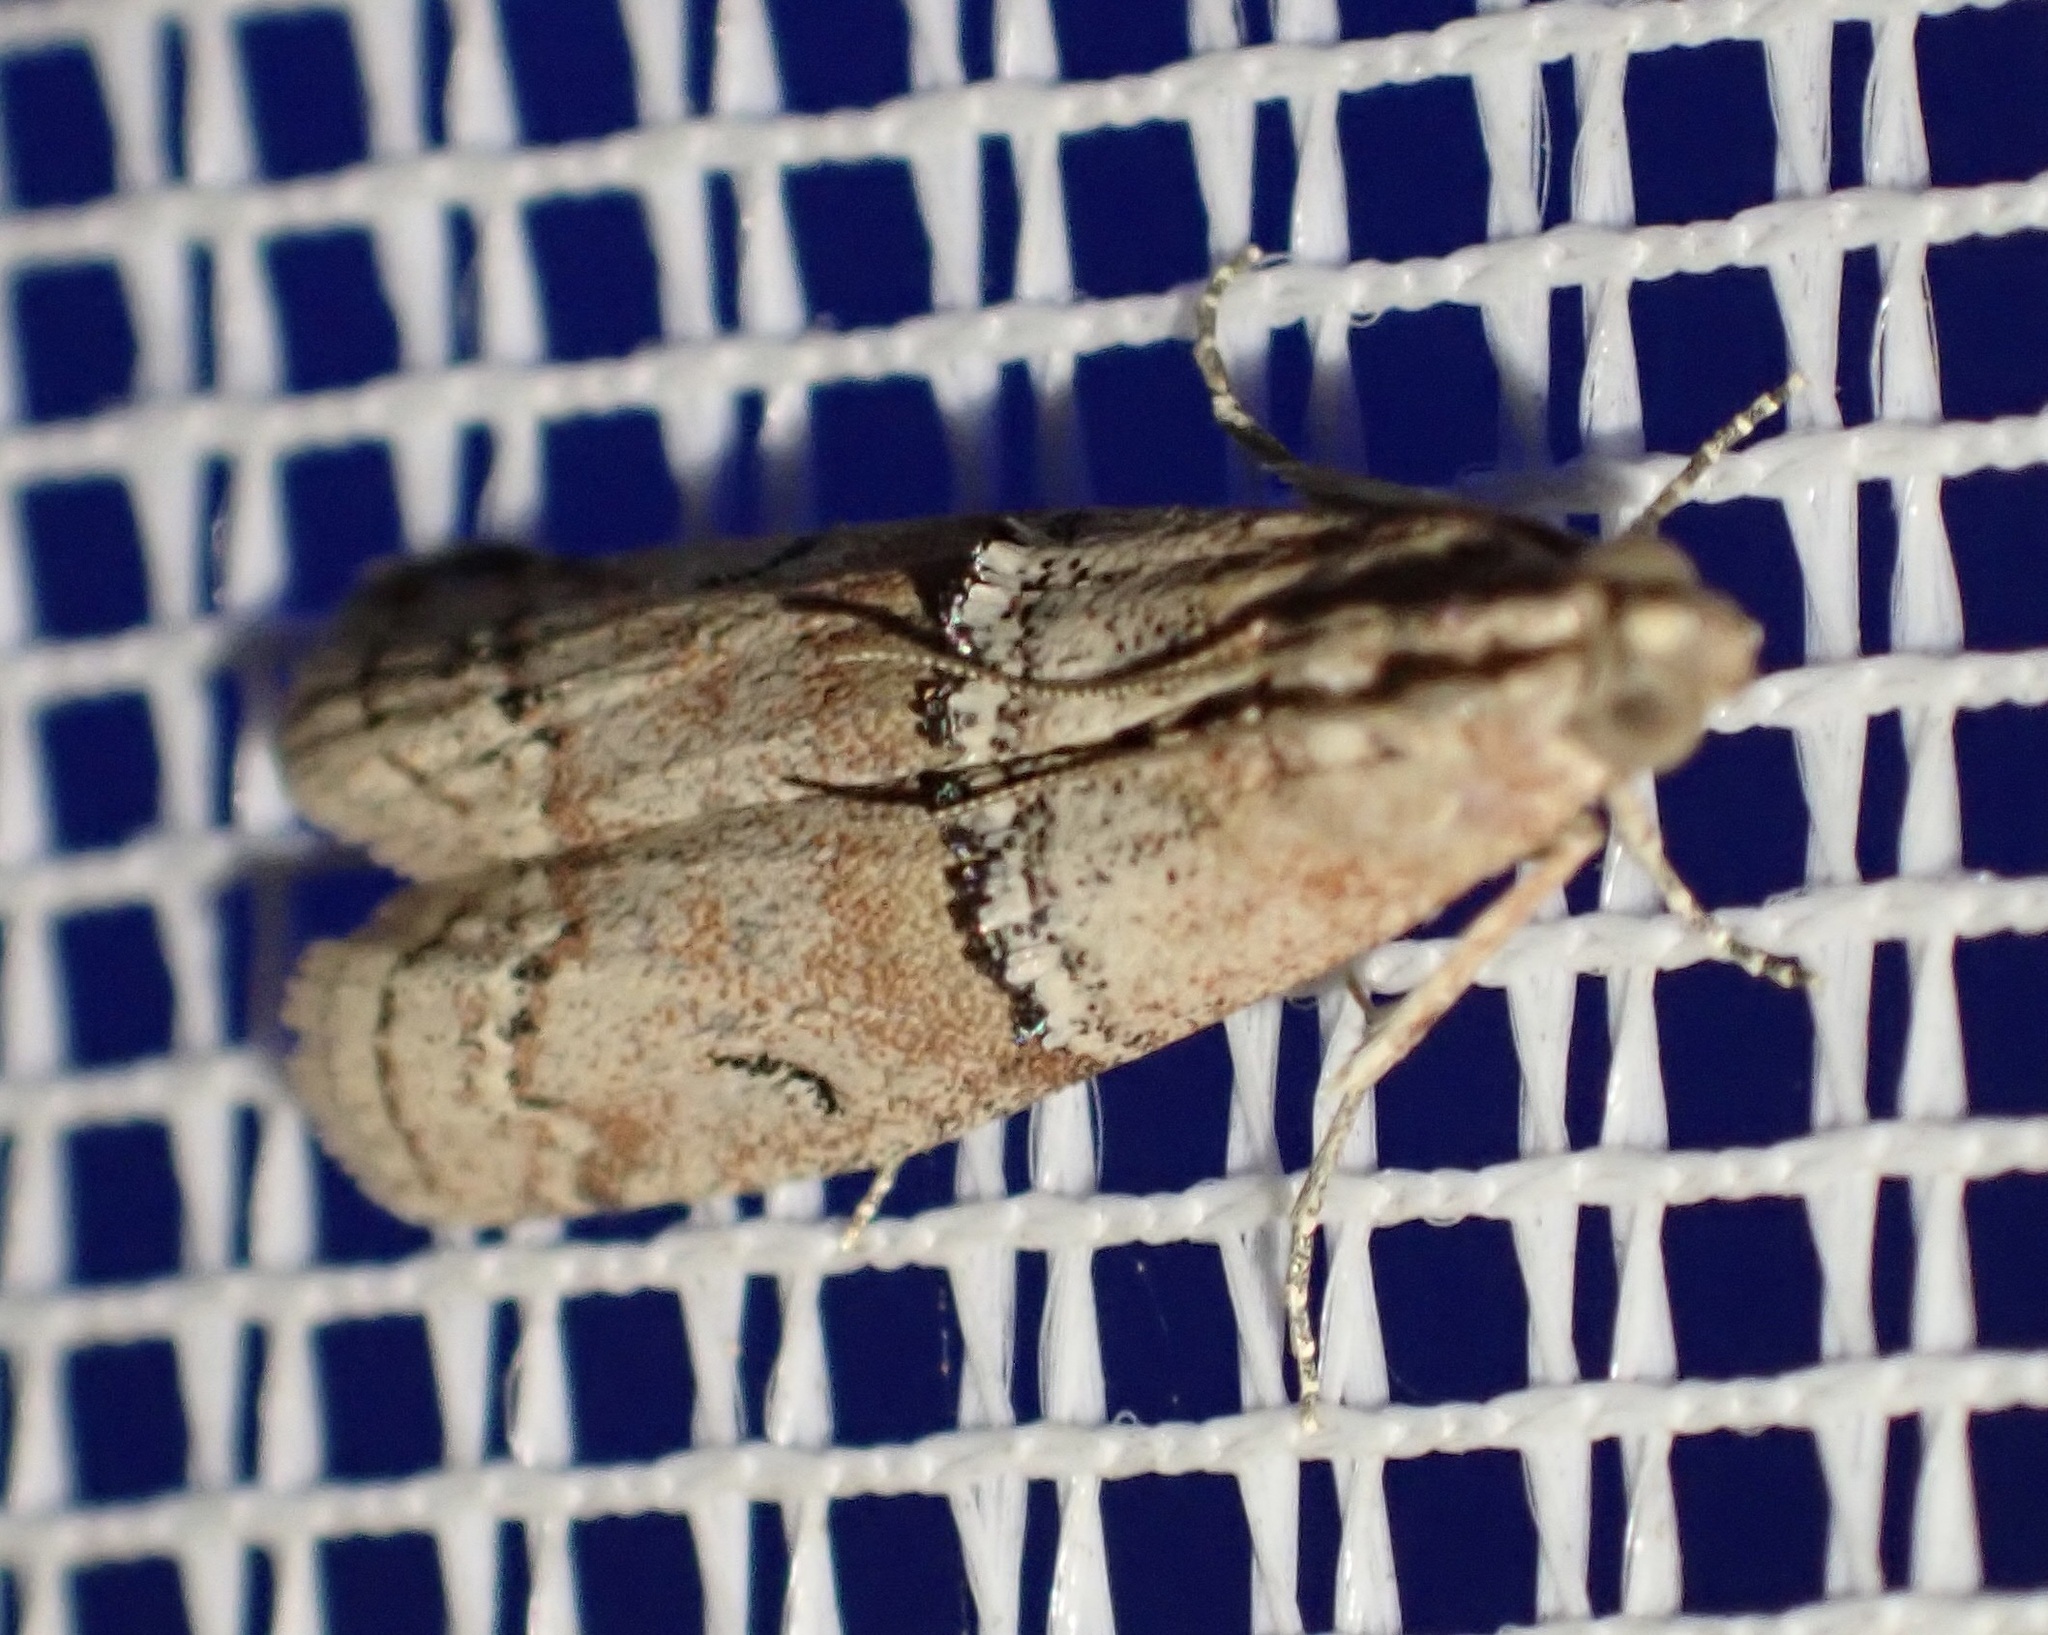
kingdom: Animalia
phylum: Arthropoda
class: Insecta
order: Lepidoptera
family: Pyralidae
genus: Pempelia
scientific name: Pempelia turturella
